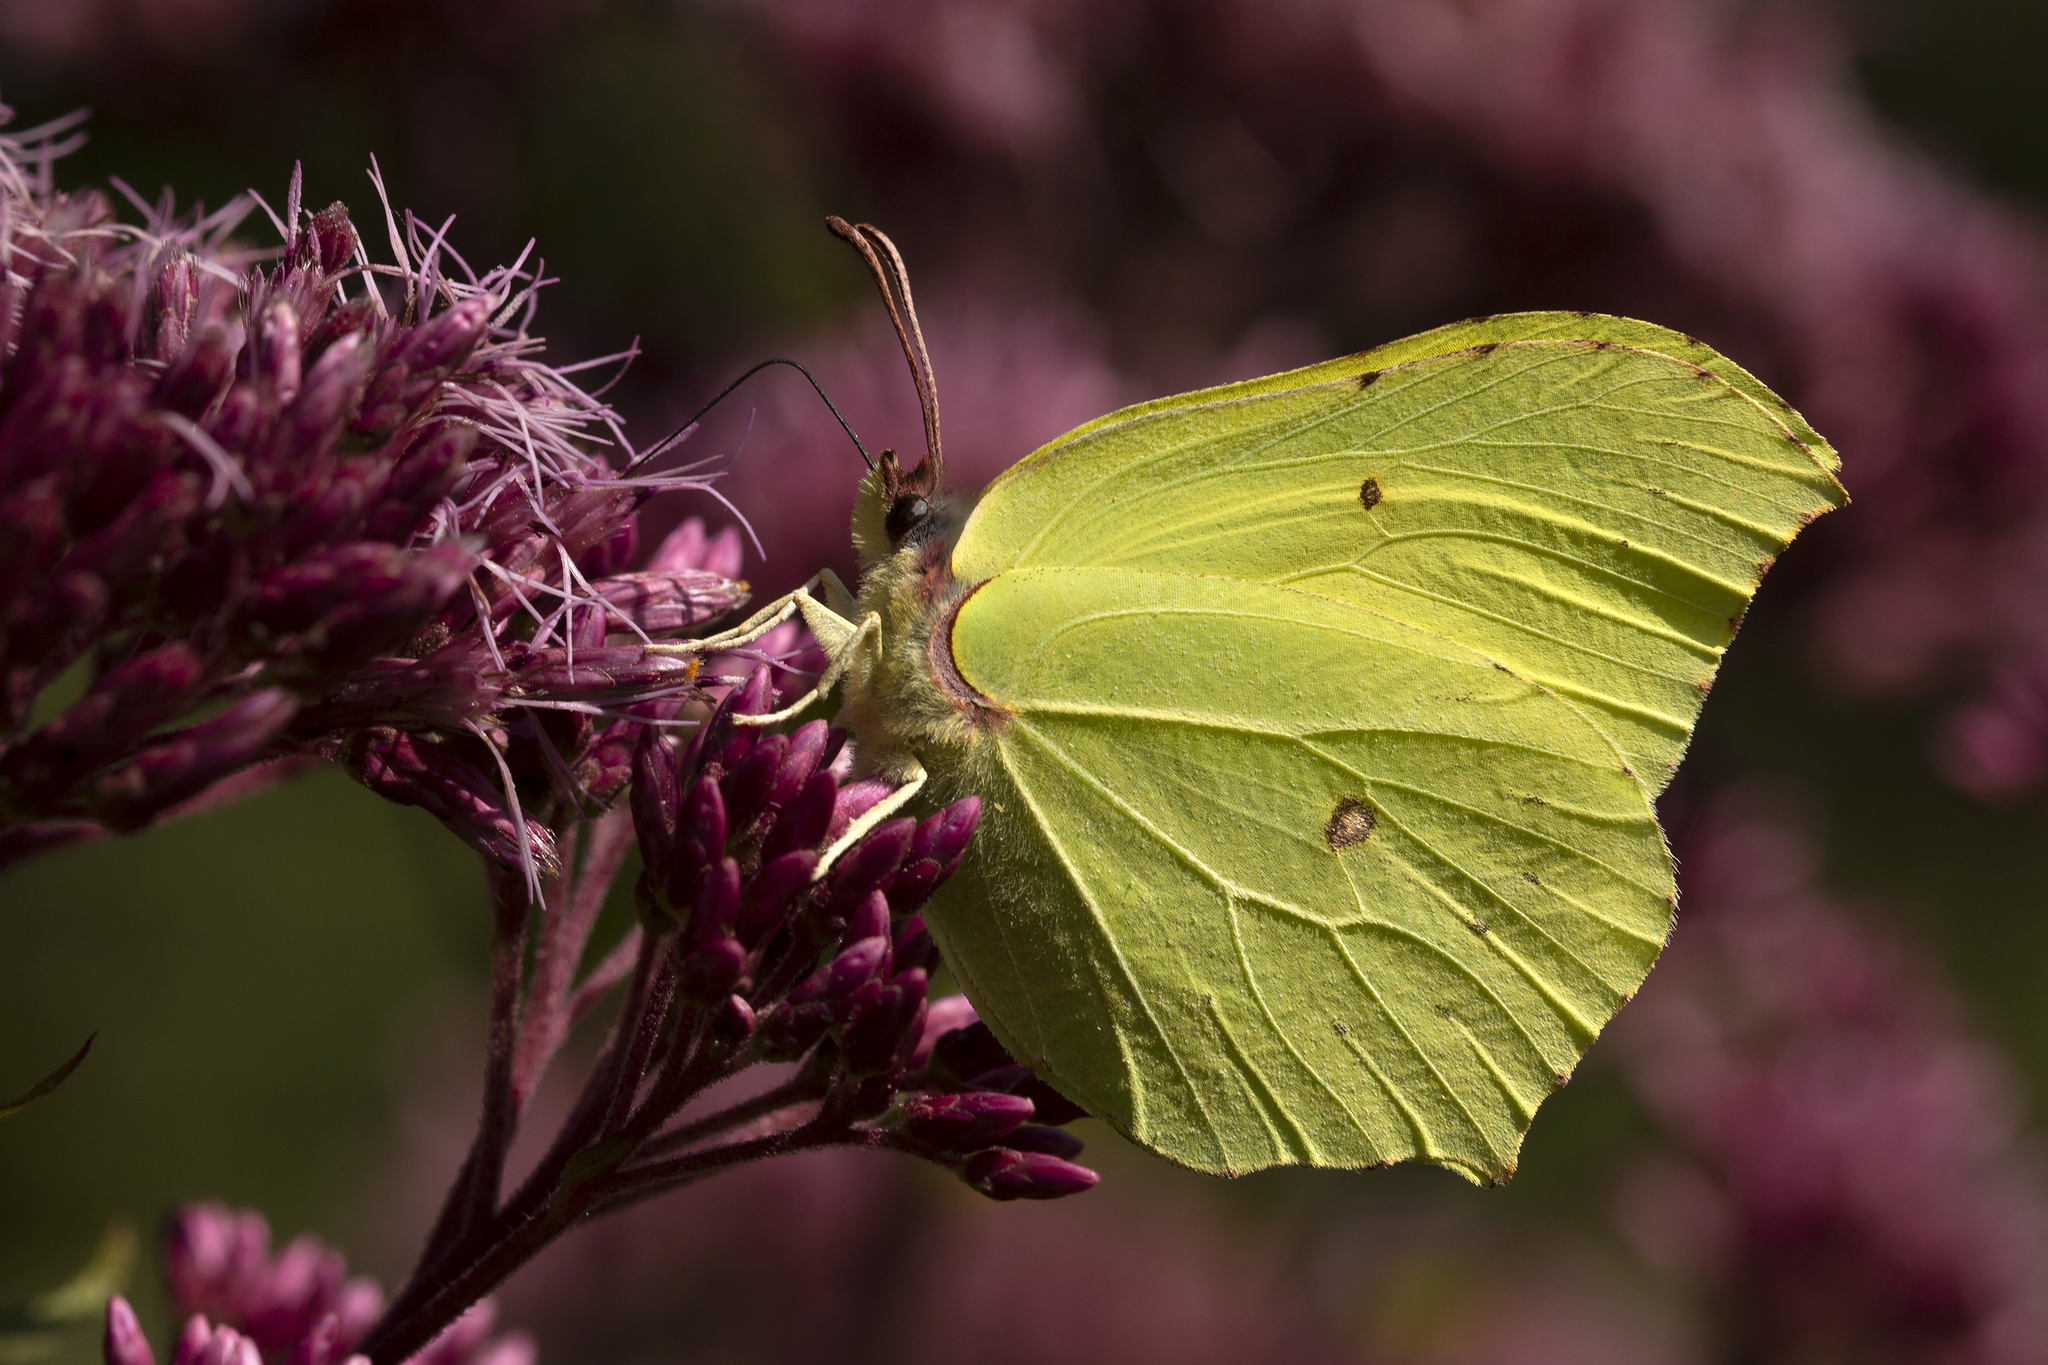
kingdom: Animalia
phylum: Arthropoda
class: Insecta
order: Lepidoptera
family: Pieridae
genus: Gonepteryx
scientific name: Gonepteryx rhamni
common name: Brimstone
